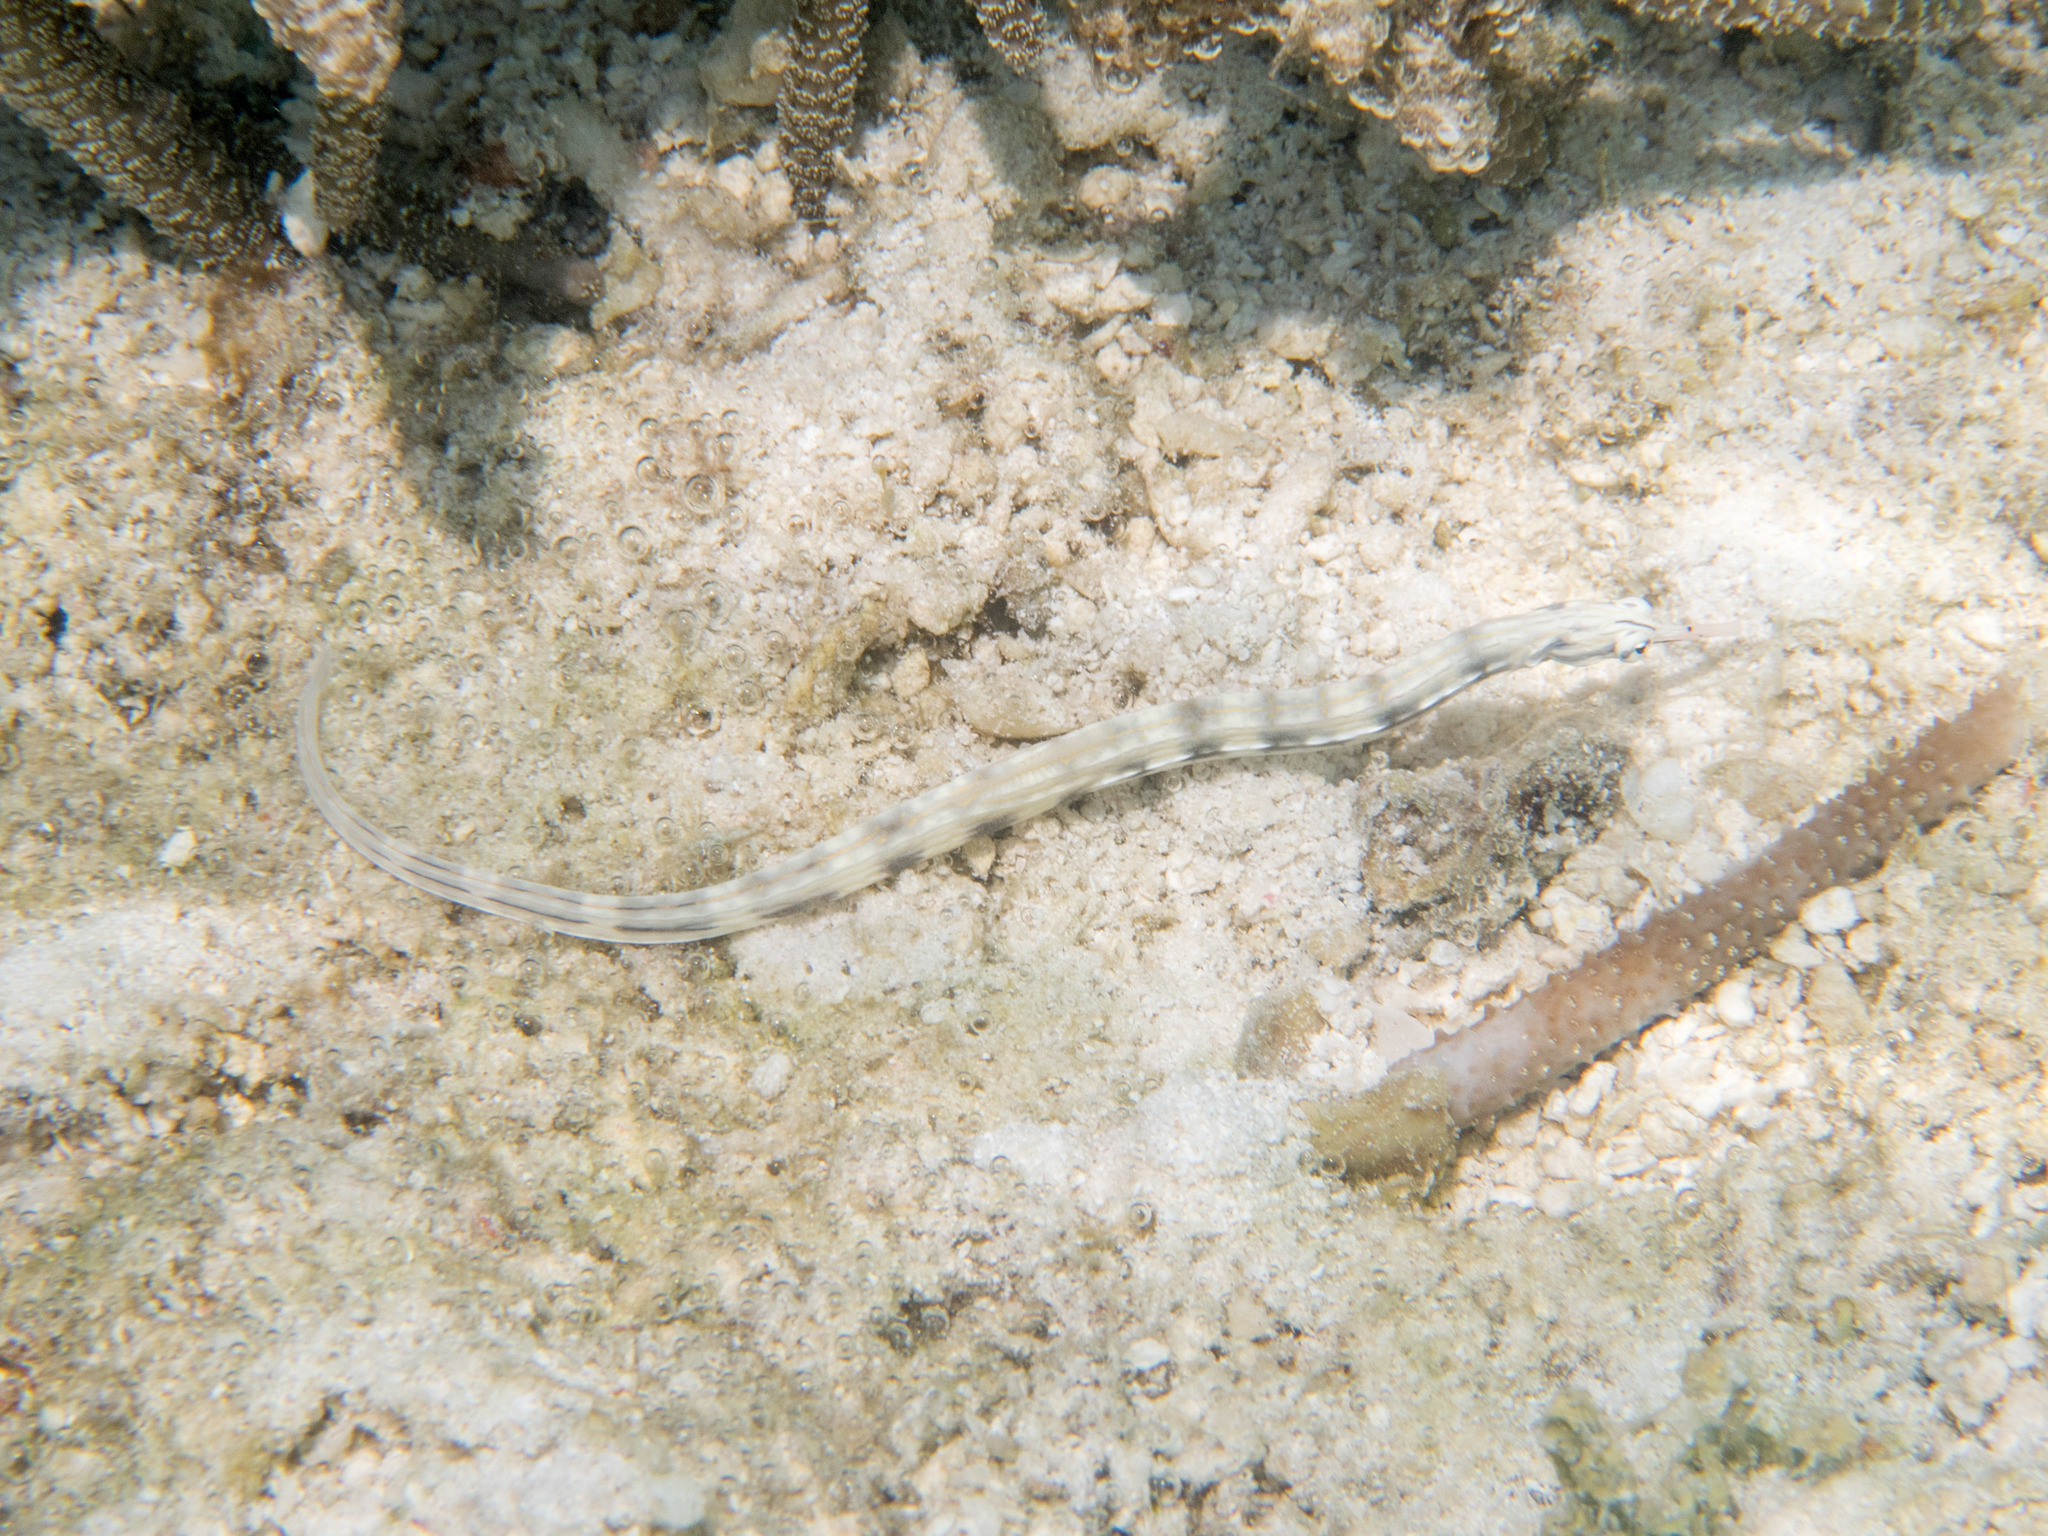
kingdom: Animalia
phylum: Chordata
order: Syngnathiformes
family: Syngnathidae
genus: Corythoichthys
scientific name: Corythoichthys haematopterus
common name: Bloodspot pipefish
